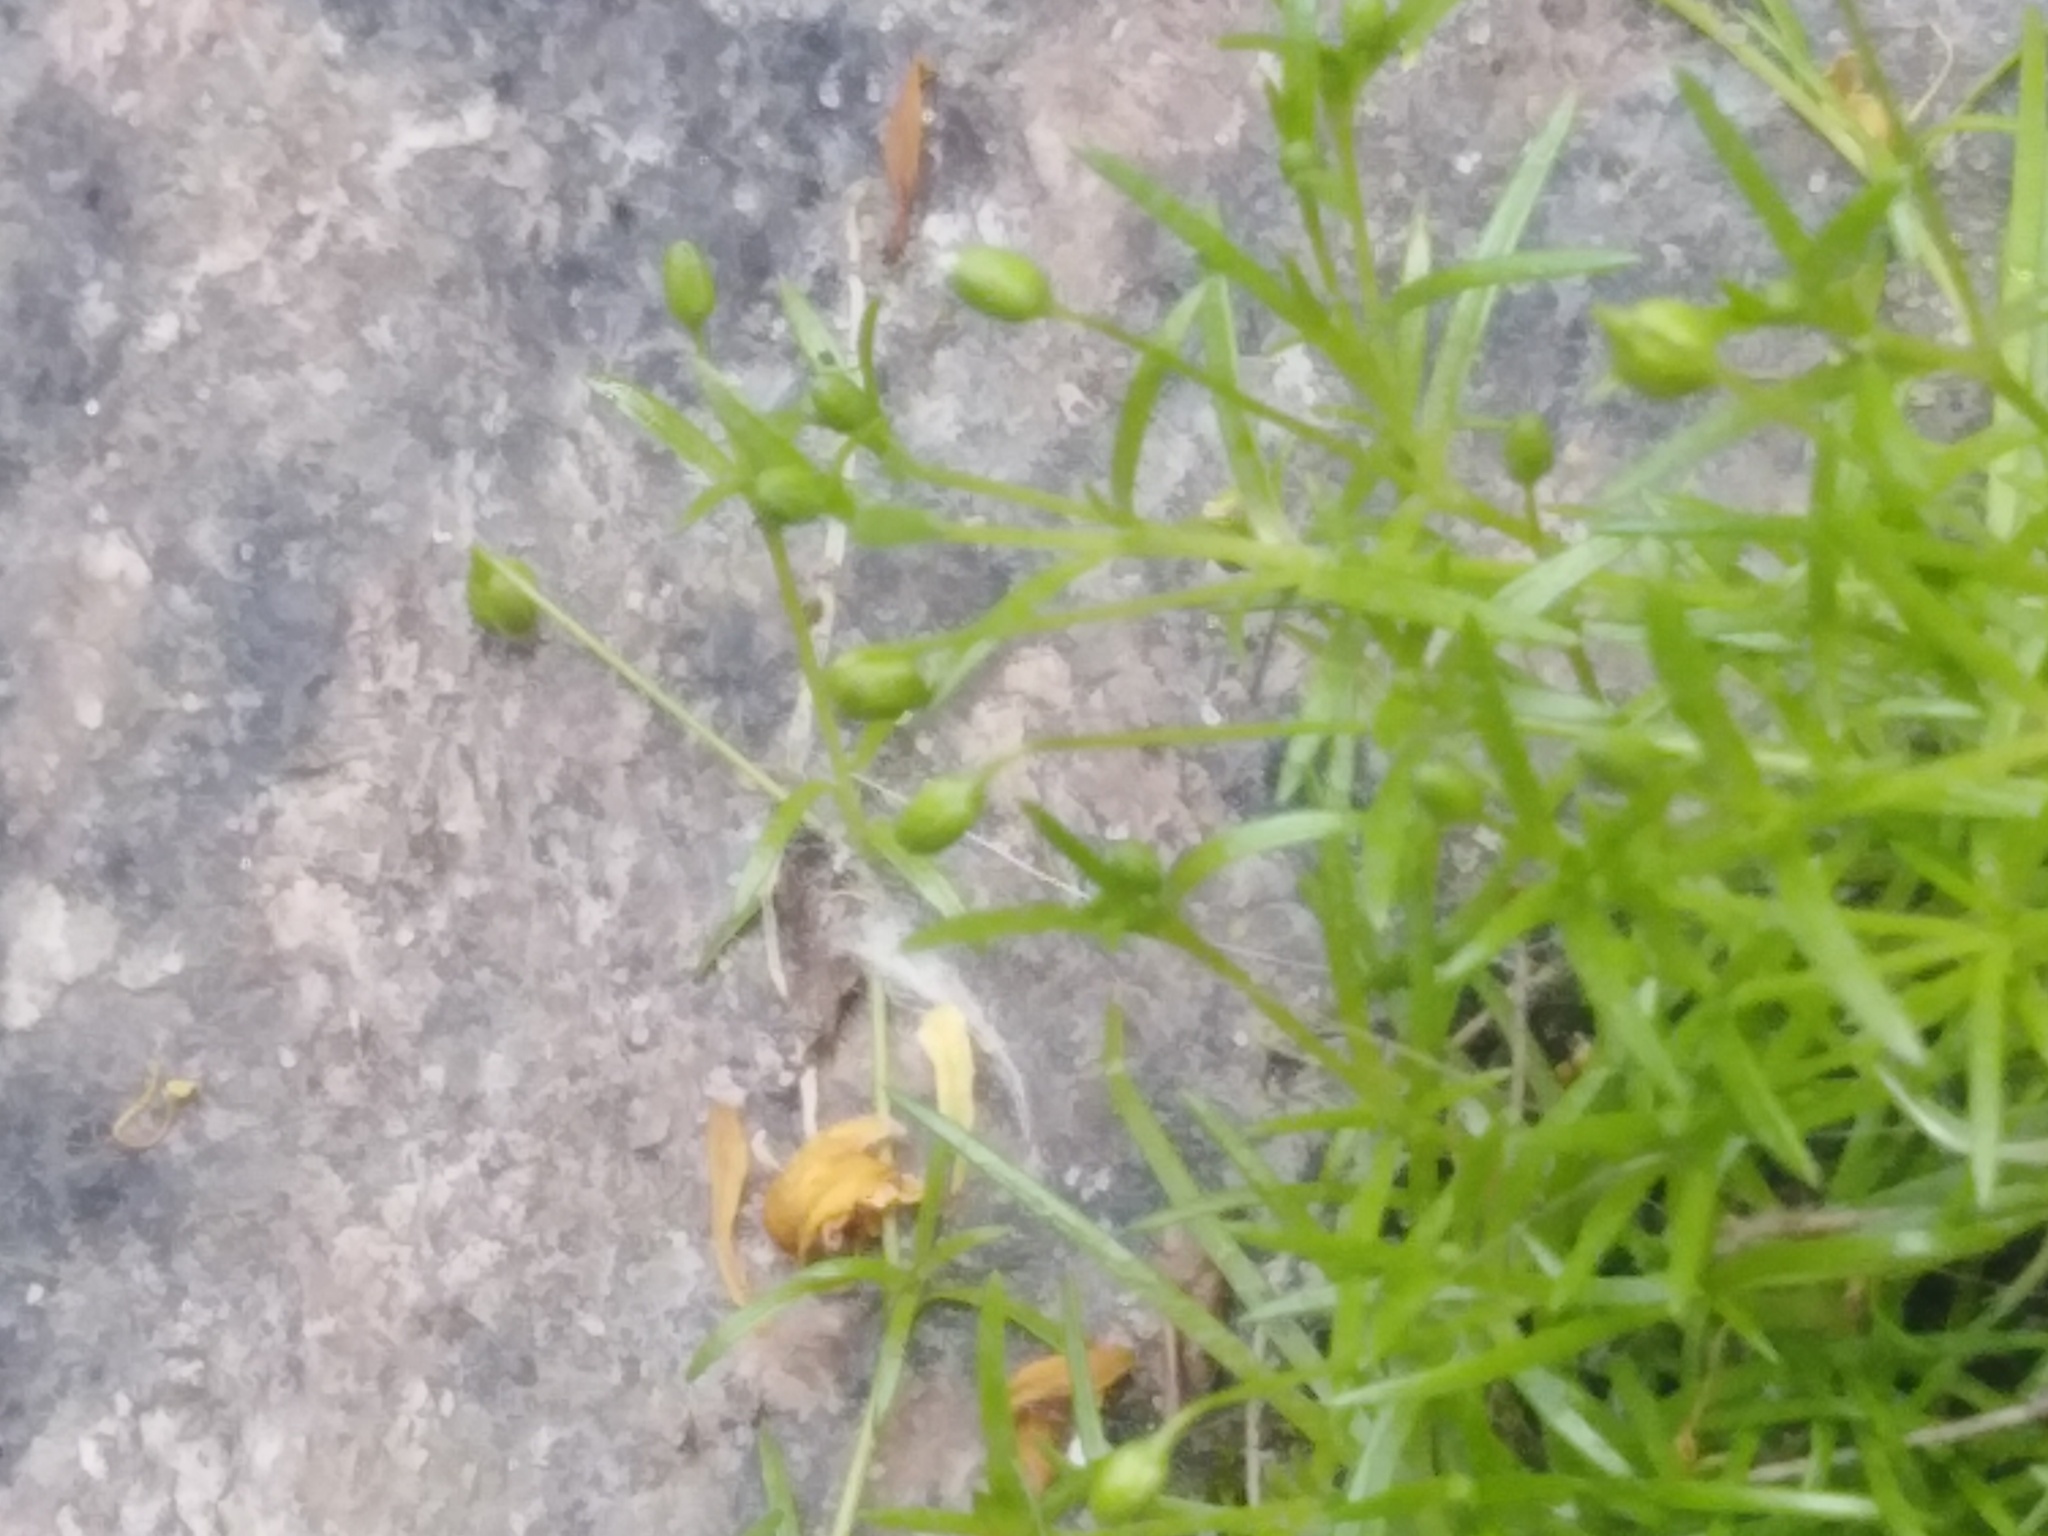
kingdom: Plantae
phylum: Tracheophyta
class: Magnoliopsida
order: Caryophyllales
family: Caryophyllaceae
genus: Sagina
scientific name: Sagina procumbens
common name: Procumbent pearlwort
